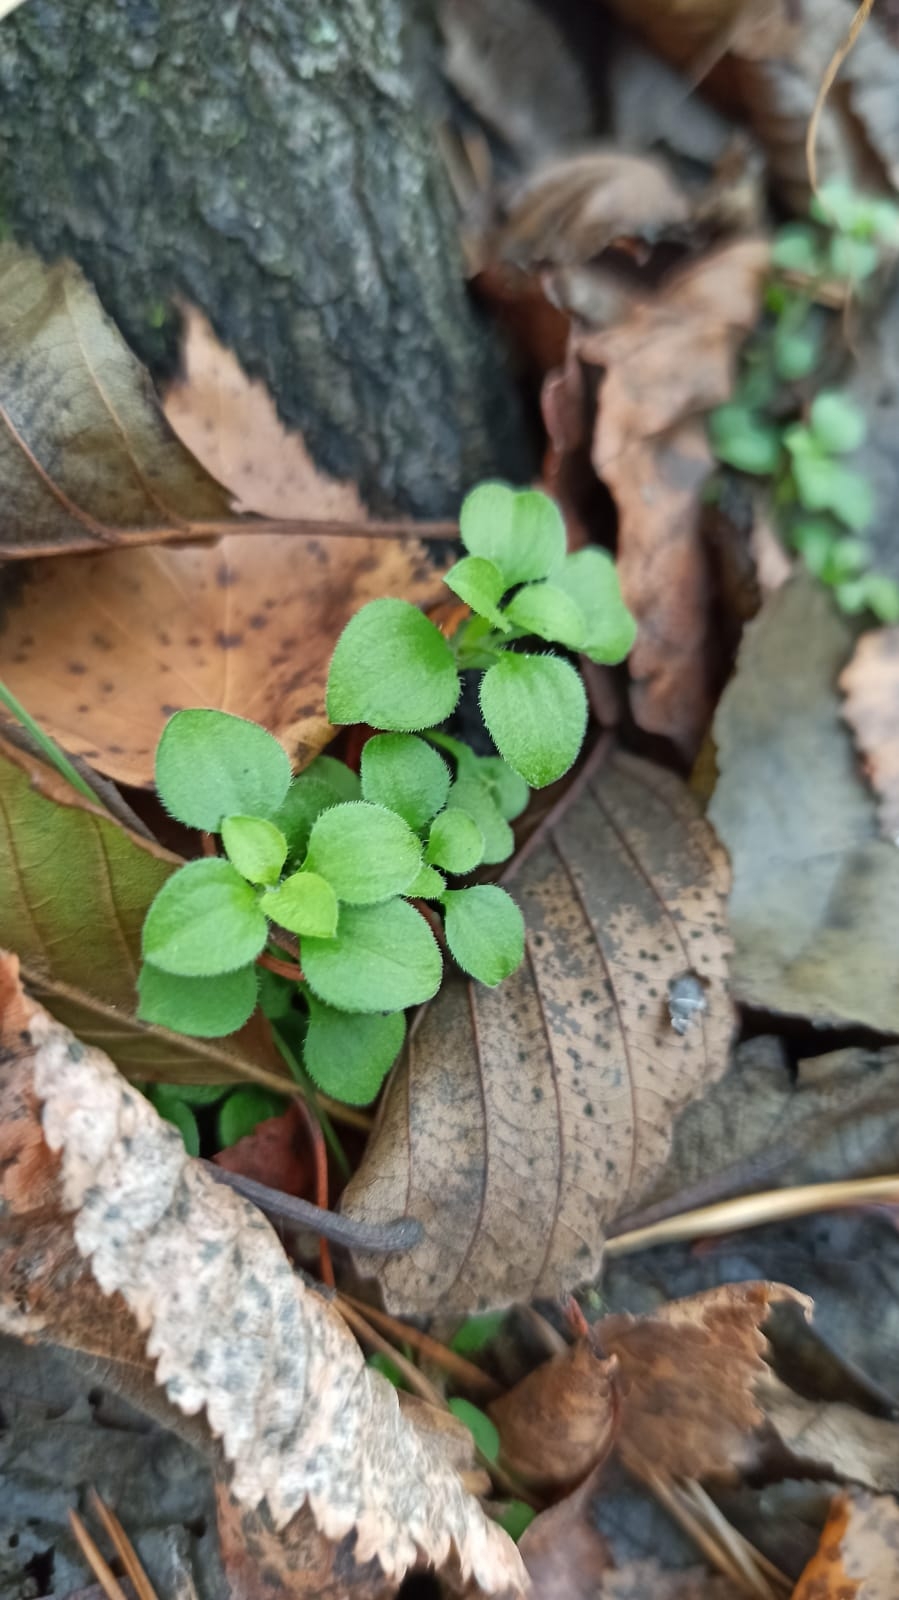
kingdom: Plantae
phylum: Tracheophyta
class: Magnoliopsida
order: Caryophyllales
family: Caryophyllaceae
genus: Moehringia
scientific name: Moehringia trinervia
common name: Three-nerved sandwort
